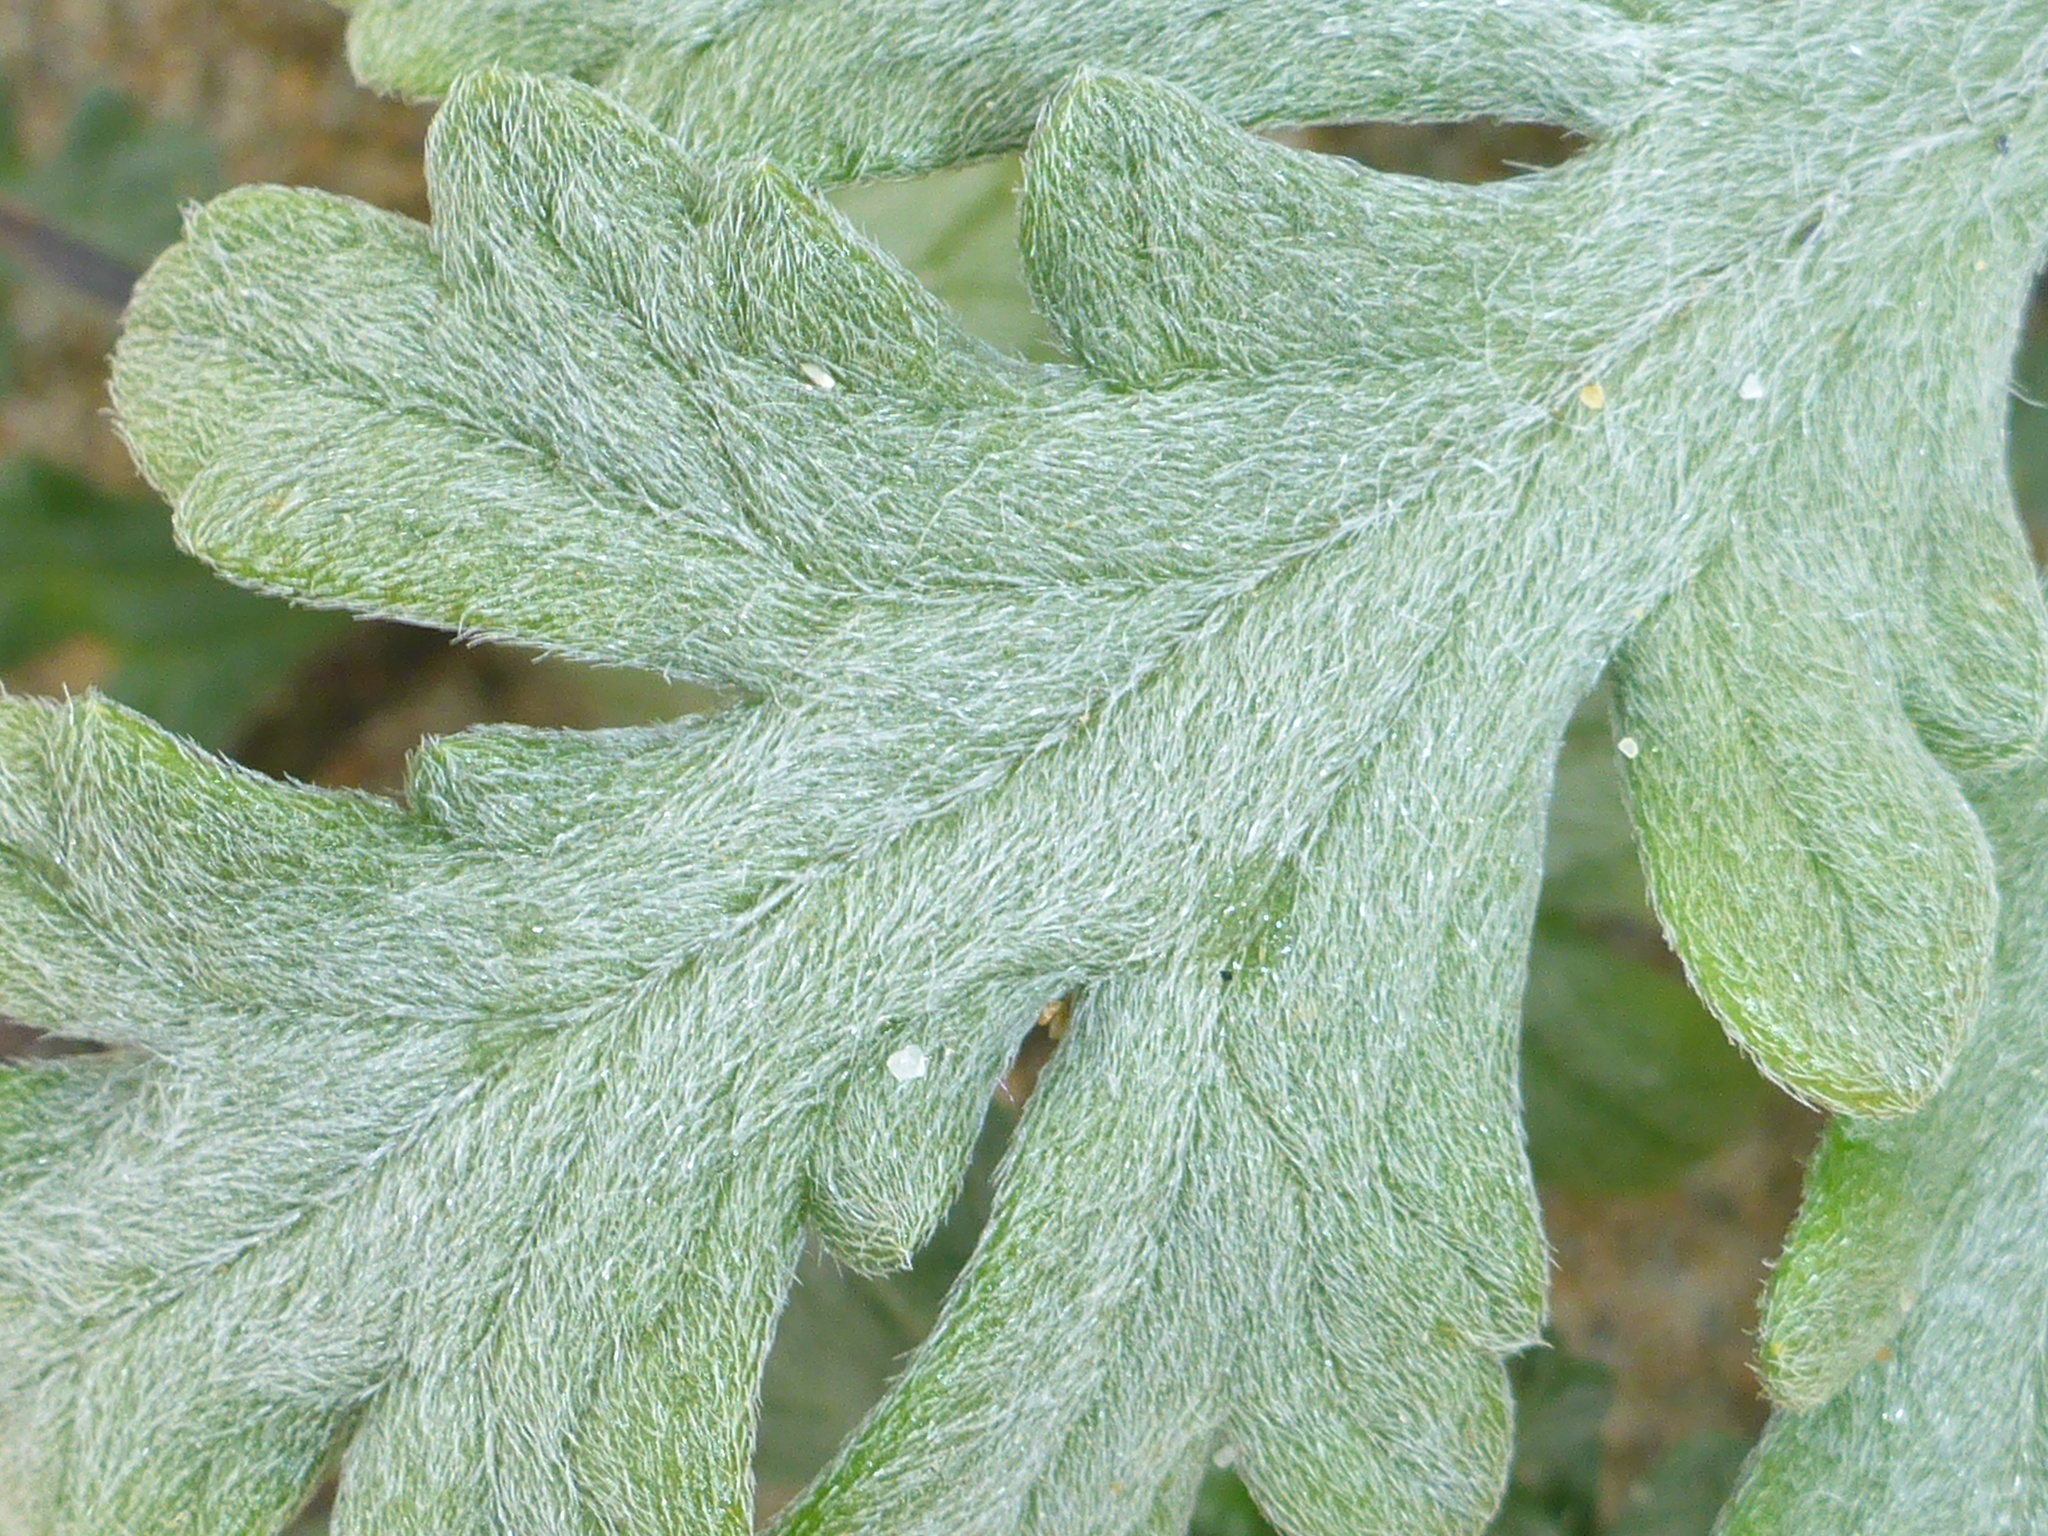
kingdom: Plantae
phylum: Tracheophyta
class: Magnoliopsida
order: Asterales
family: Asteraceae
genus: Ambrosia
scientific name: Ambrosia chamissonis
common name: Beachbur
